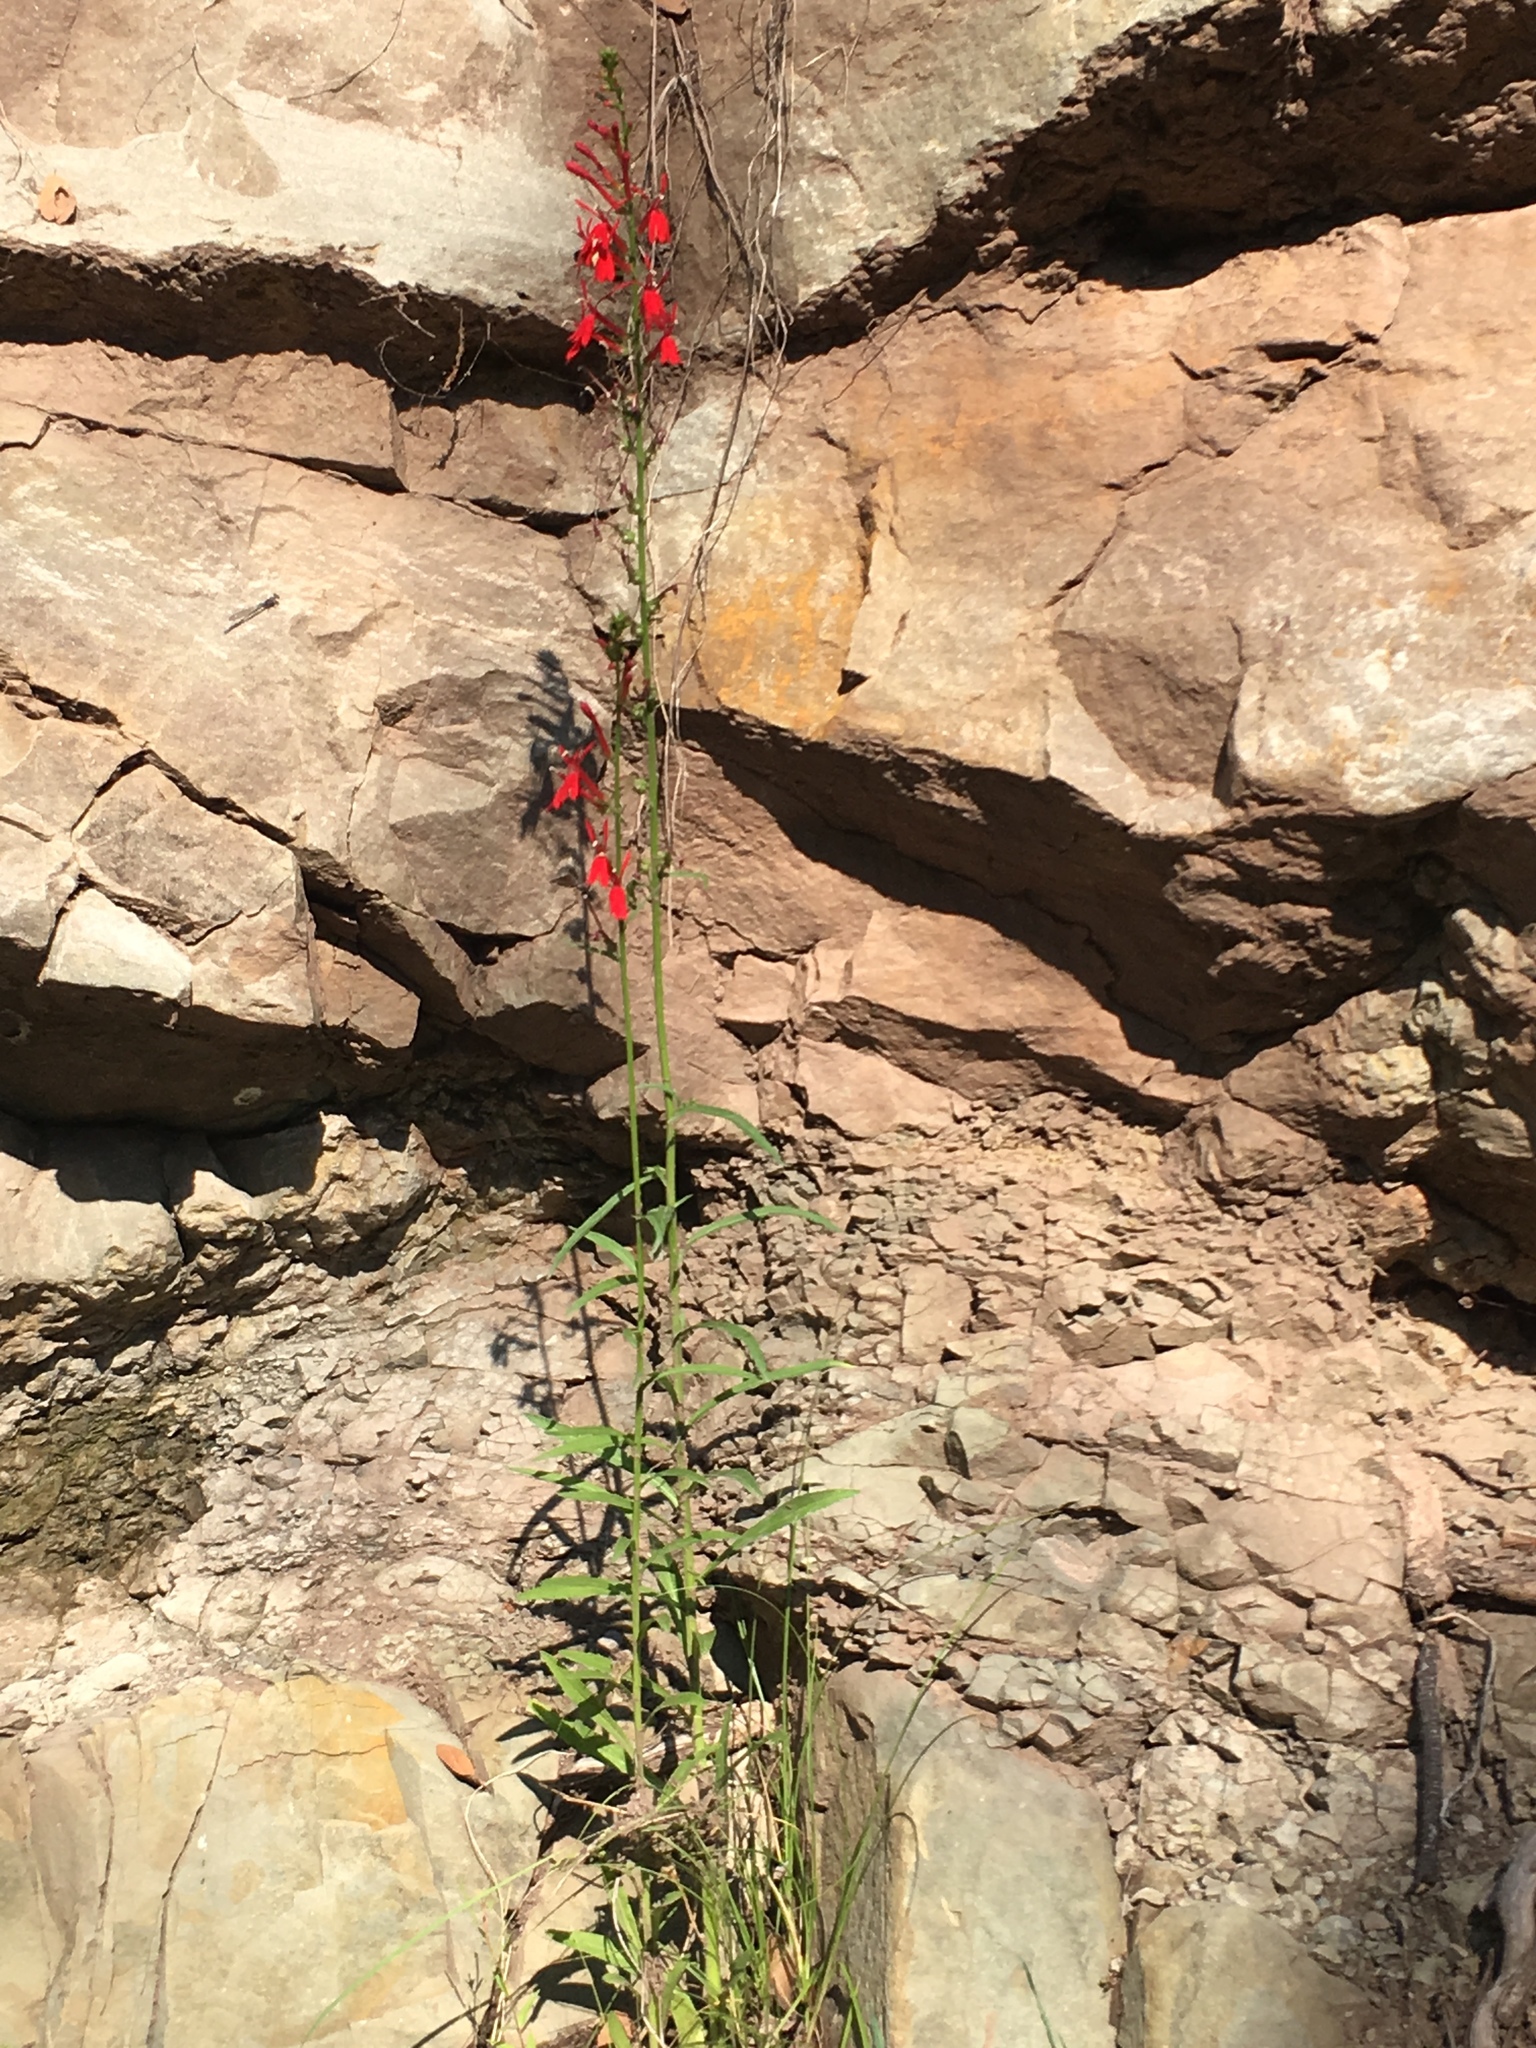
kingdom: Plantae
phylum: Tracheophyta
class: Magnoliopsida
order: Asterales
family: Campanulaceae
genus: Lobelia
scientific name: Lobelia cardinalis
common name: Cardinal flower
